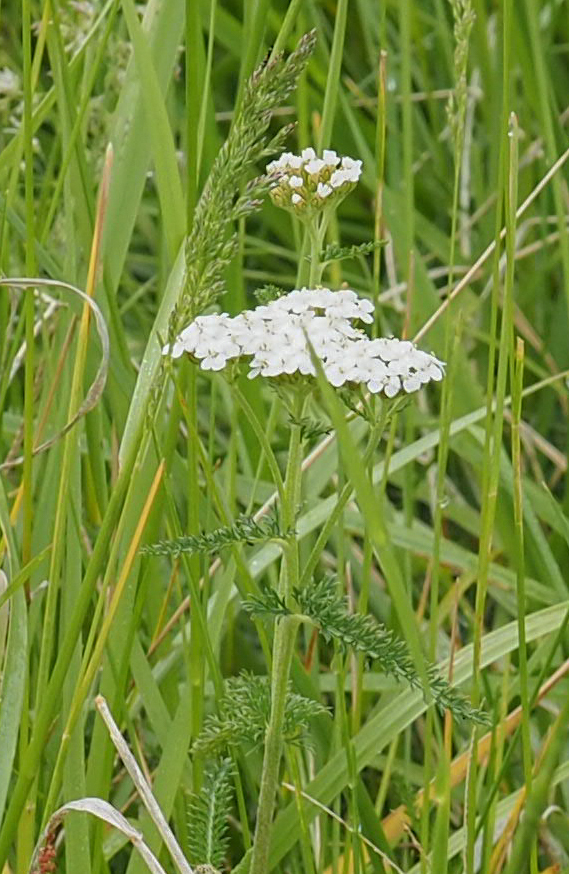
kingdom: Plantae
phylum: Tracheophyta
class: Magnoliopsida
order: Asterales
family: Asteraceae
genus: Achillea
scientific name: Achillea millefolium
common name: Yarrow
